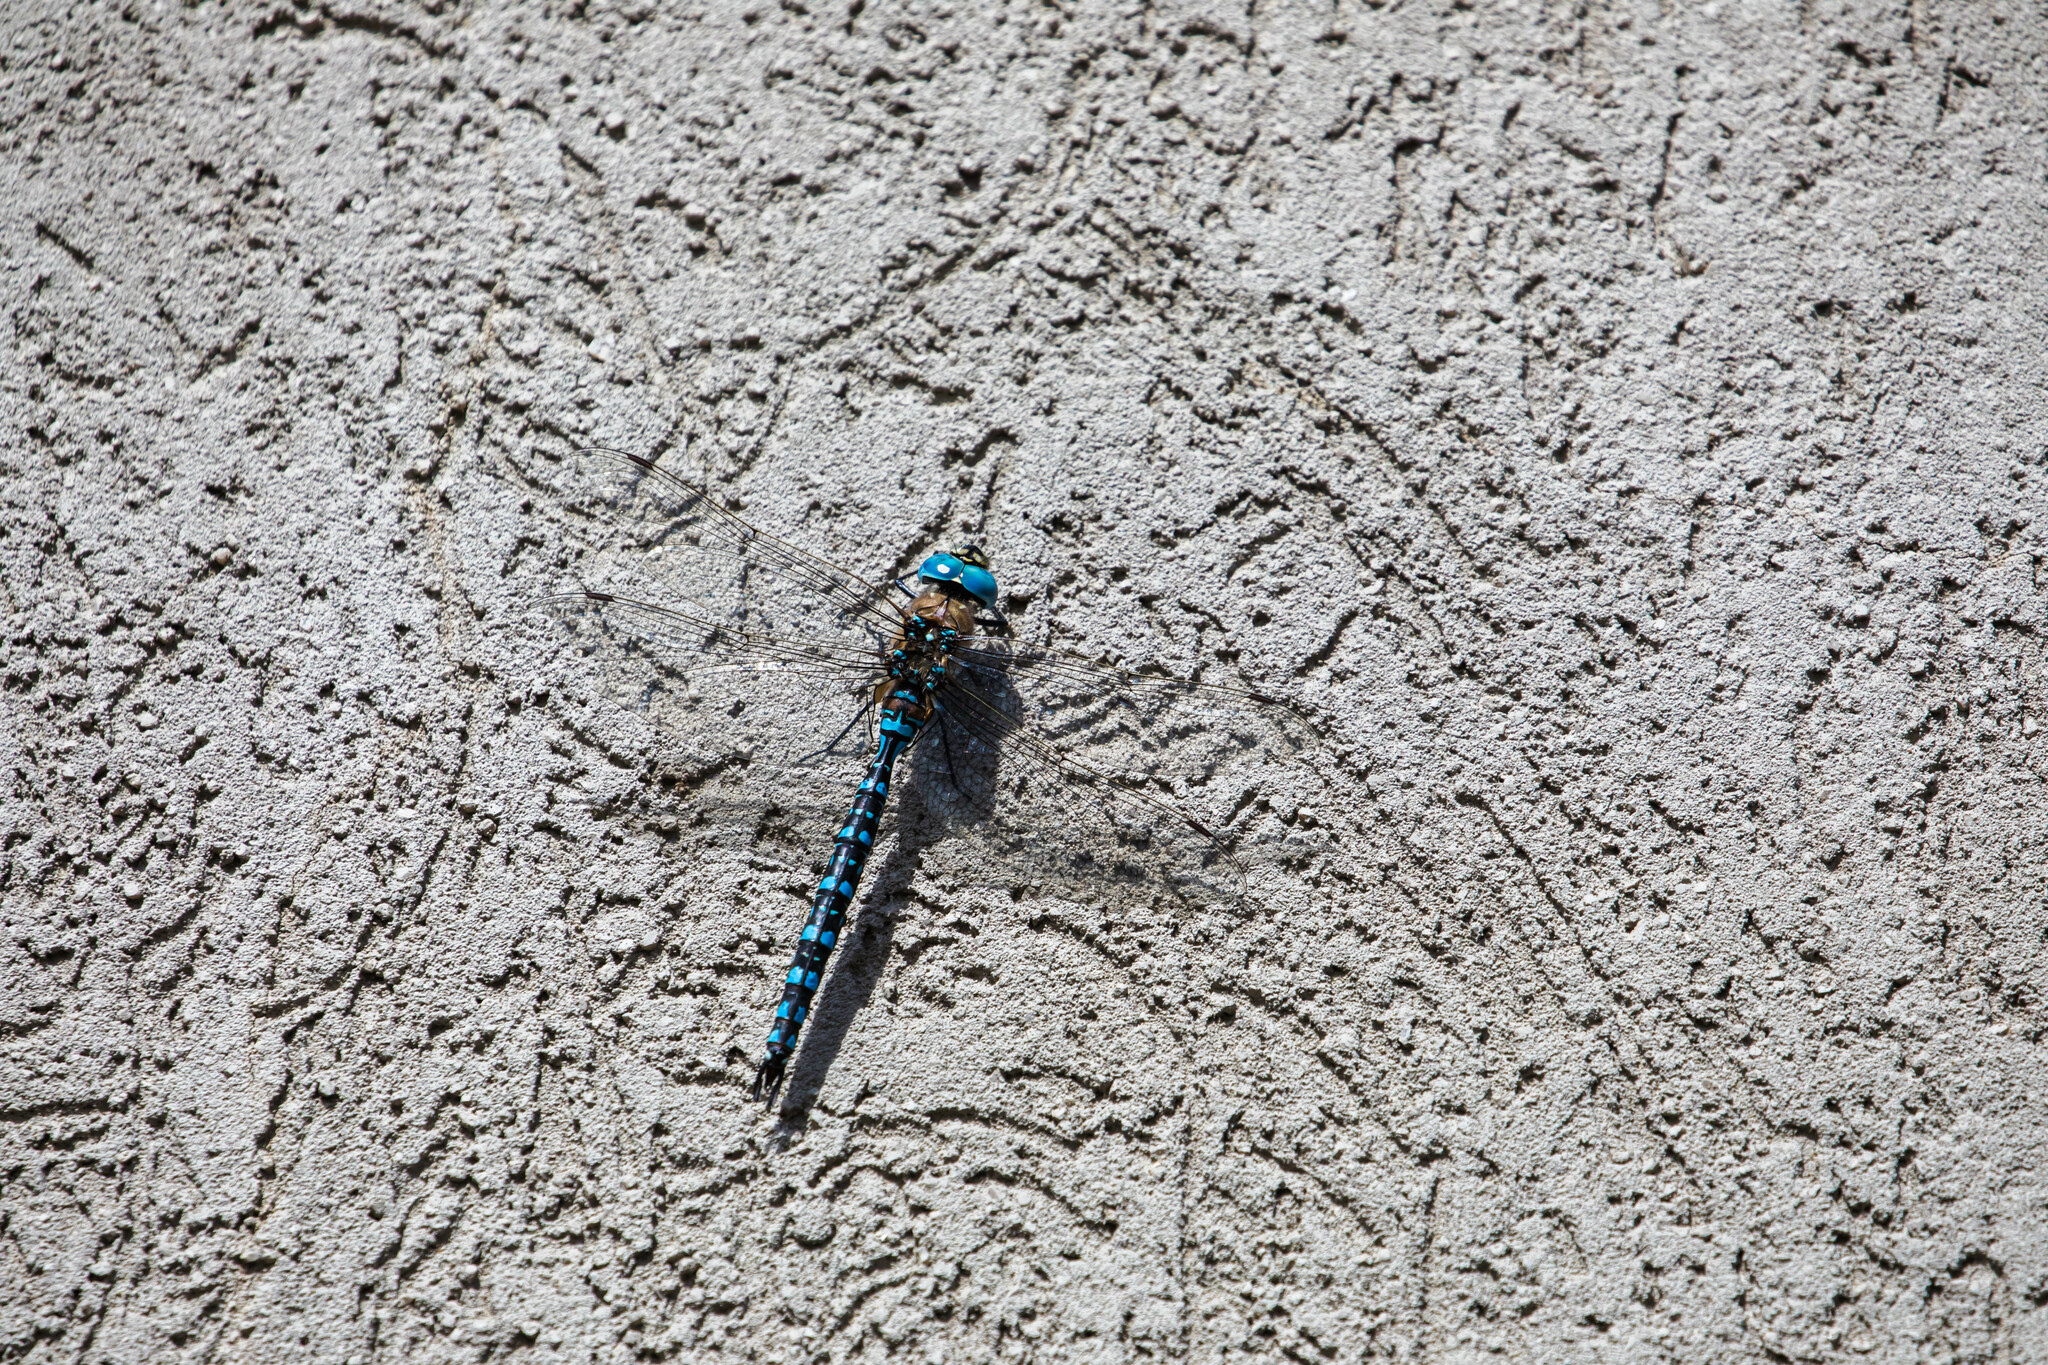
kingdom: Animalia
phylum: Arthropoda
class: Insecta
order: Odonata
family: Aeshnidae
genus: Aeshna
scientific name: Aeshna interrupta
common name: Variable darner
